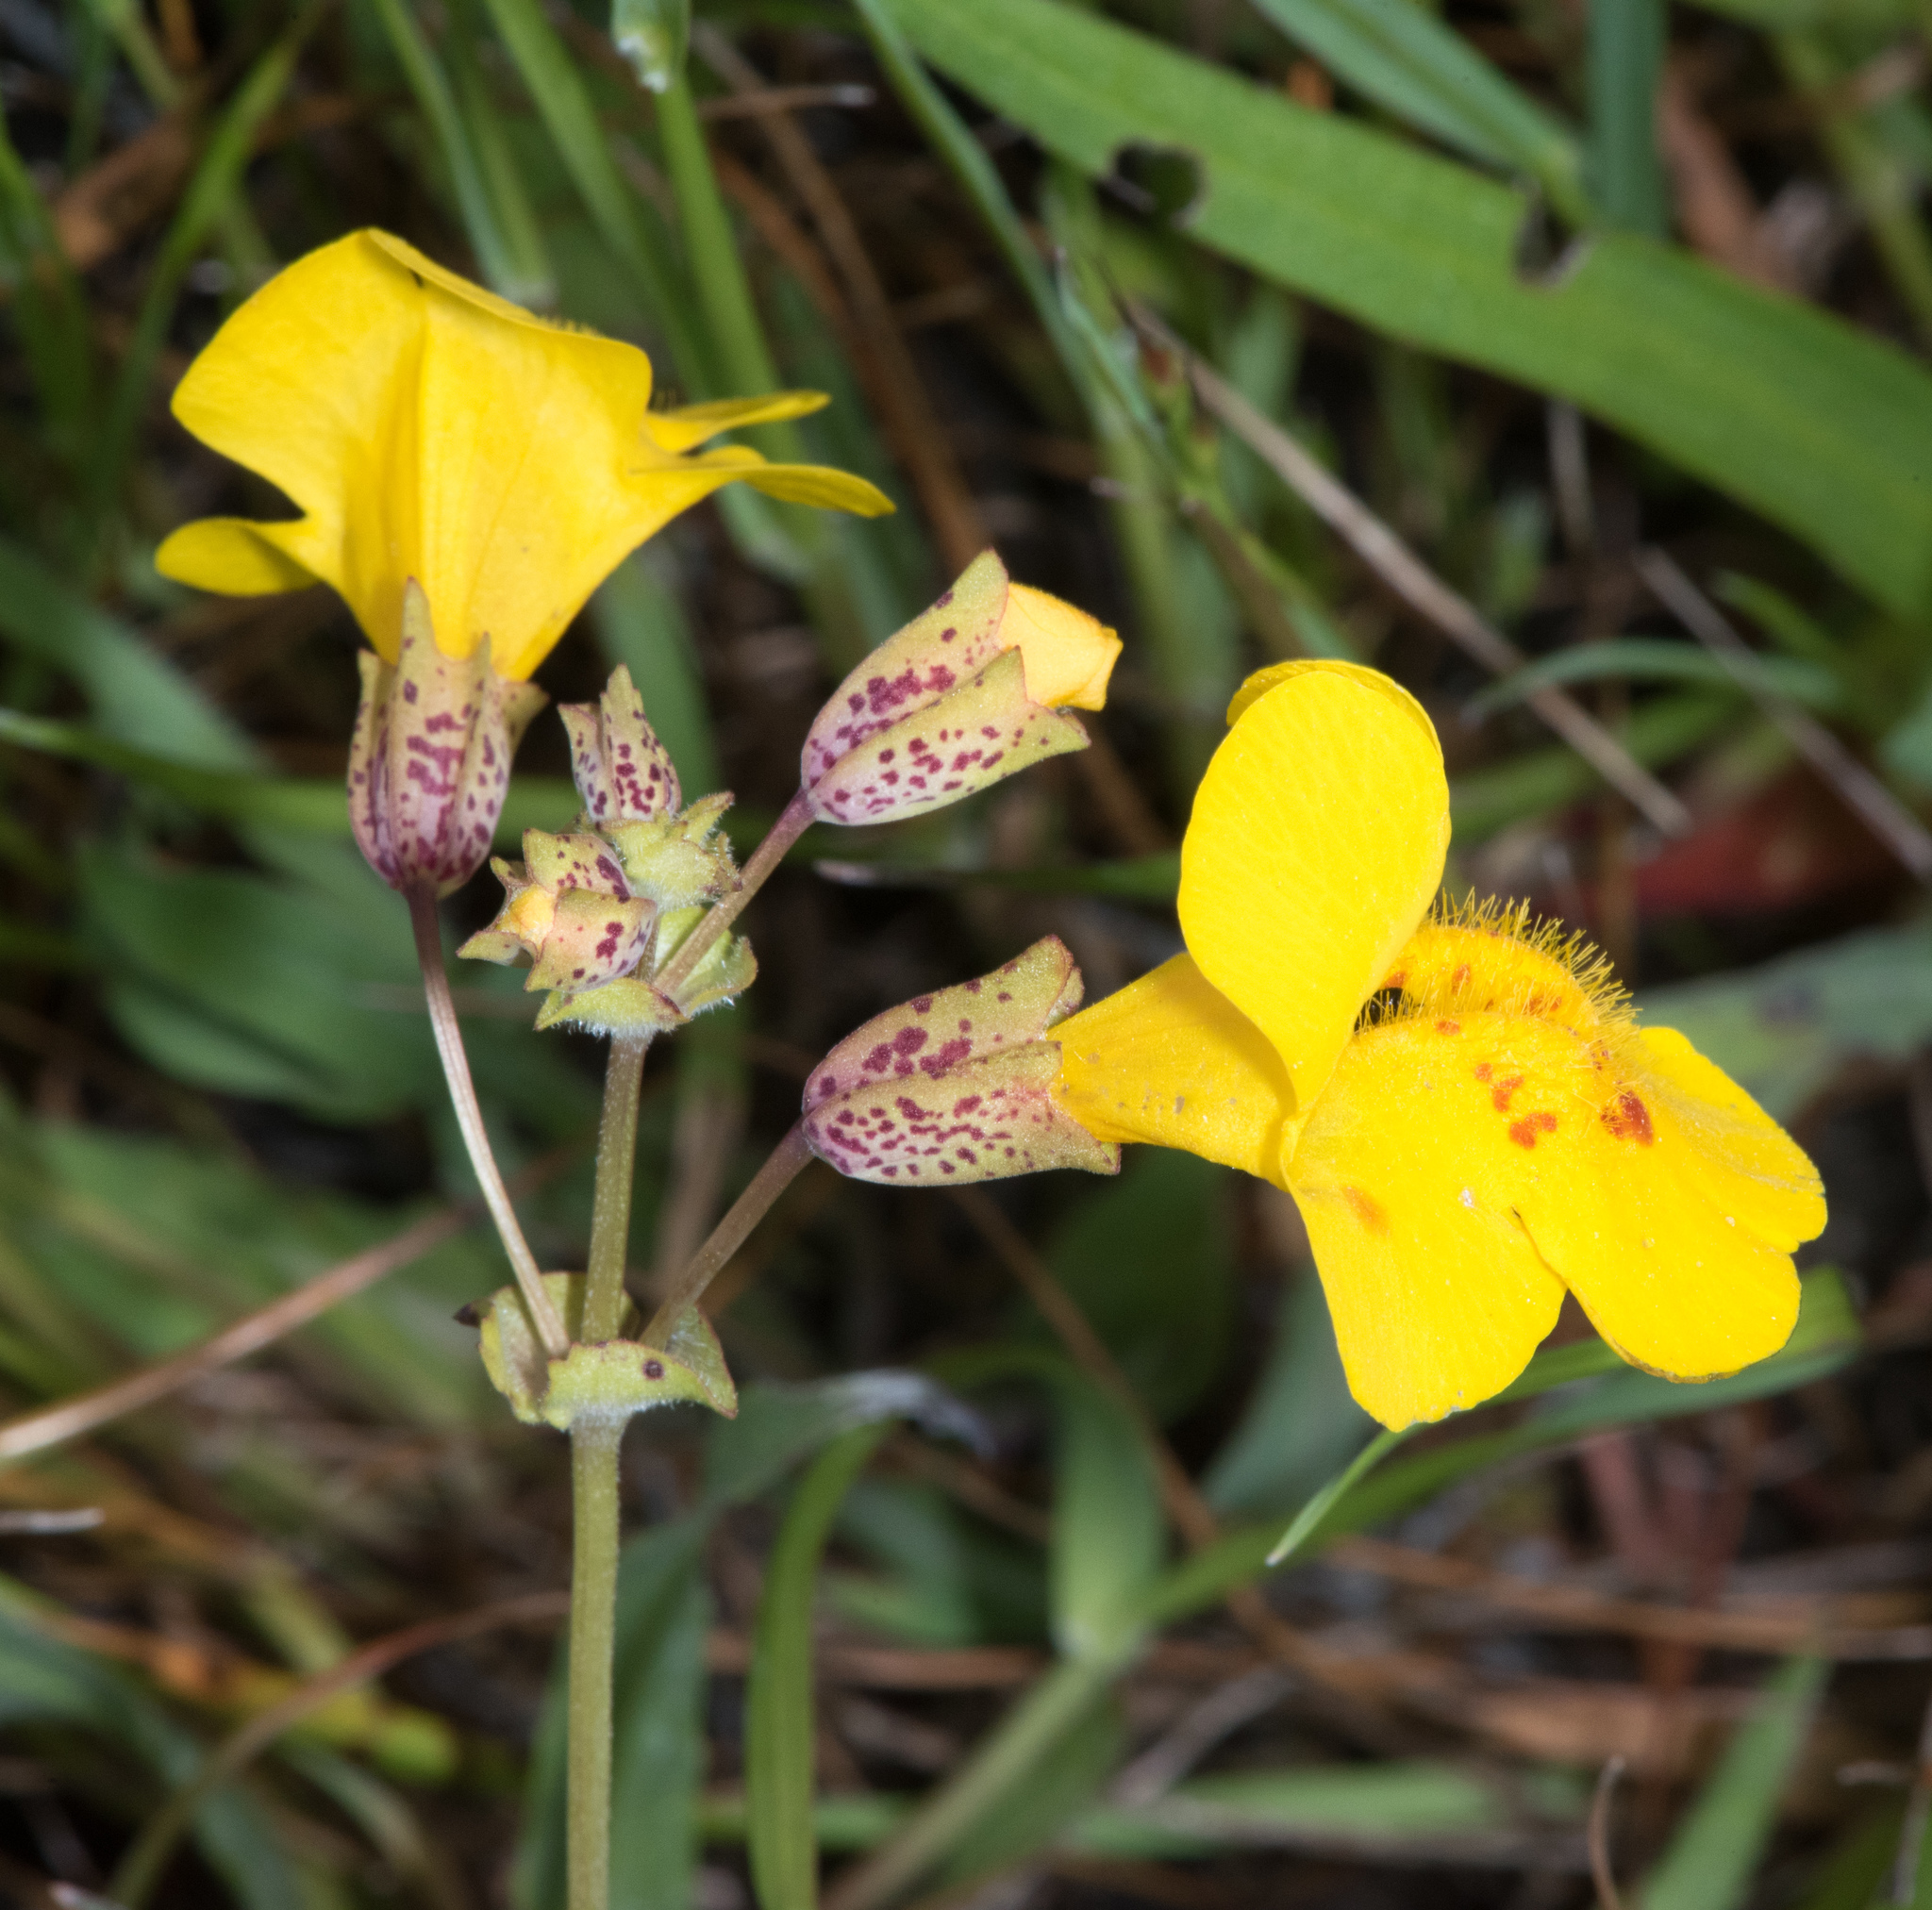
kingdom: Plantae
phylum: Tracheophyta
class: Magnoliopsida
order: Lamiales
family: Phrymaceae
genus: Erythranthe
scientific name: Erythranthe guttata
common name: Monkeyflower
